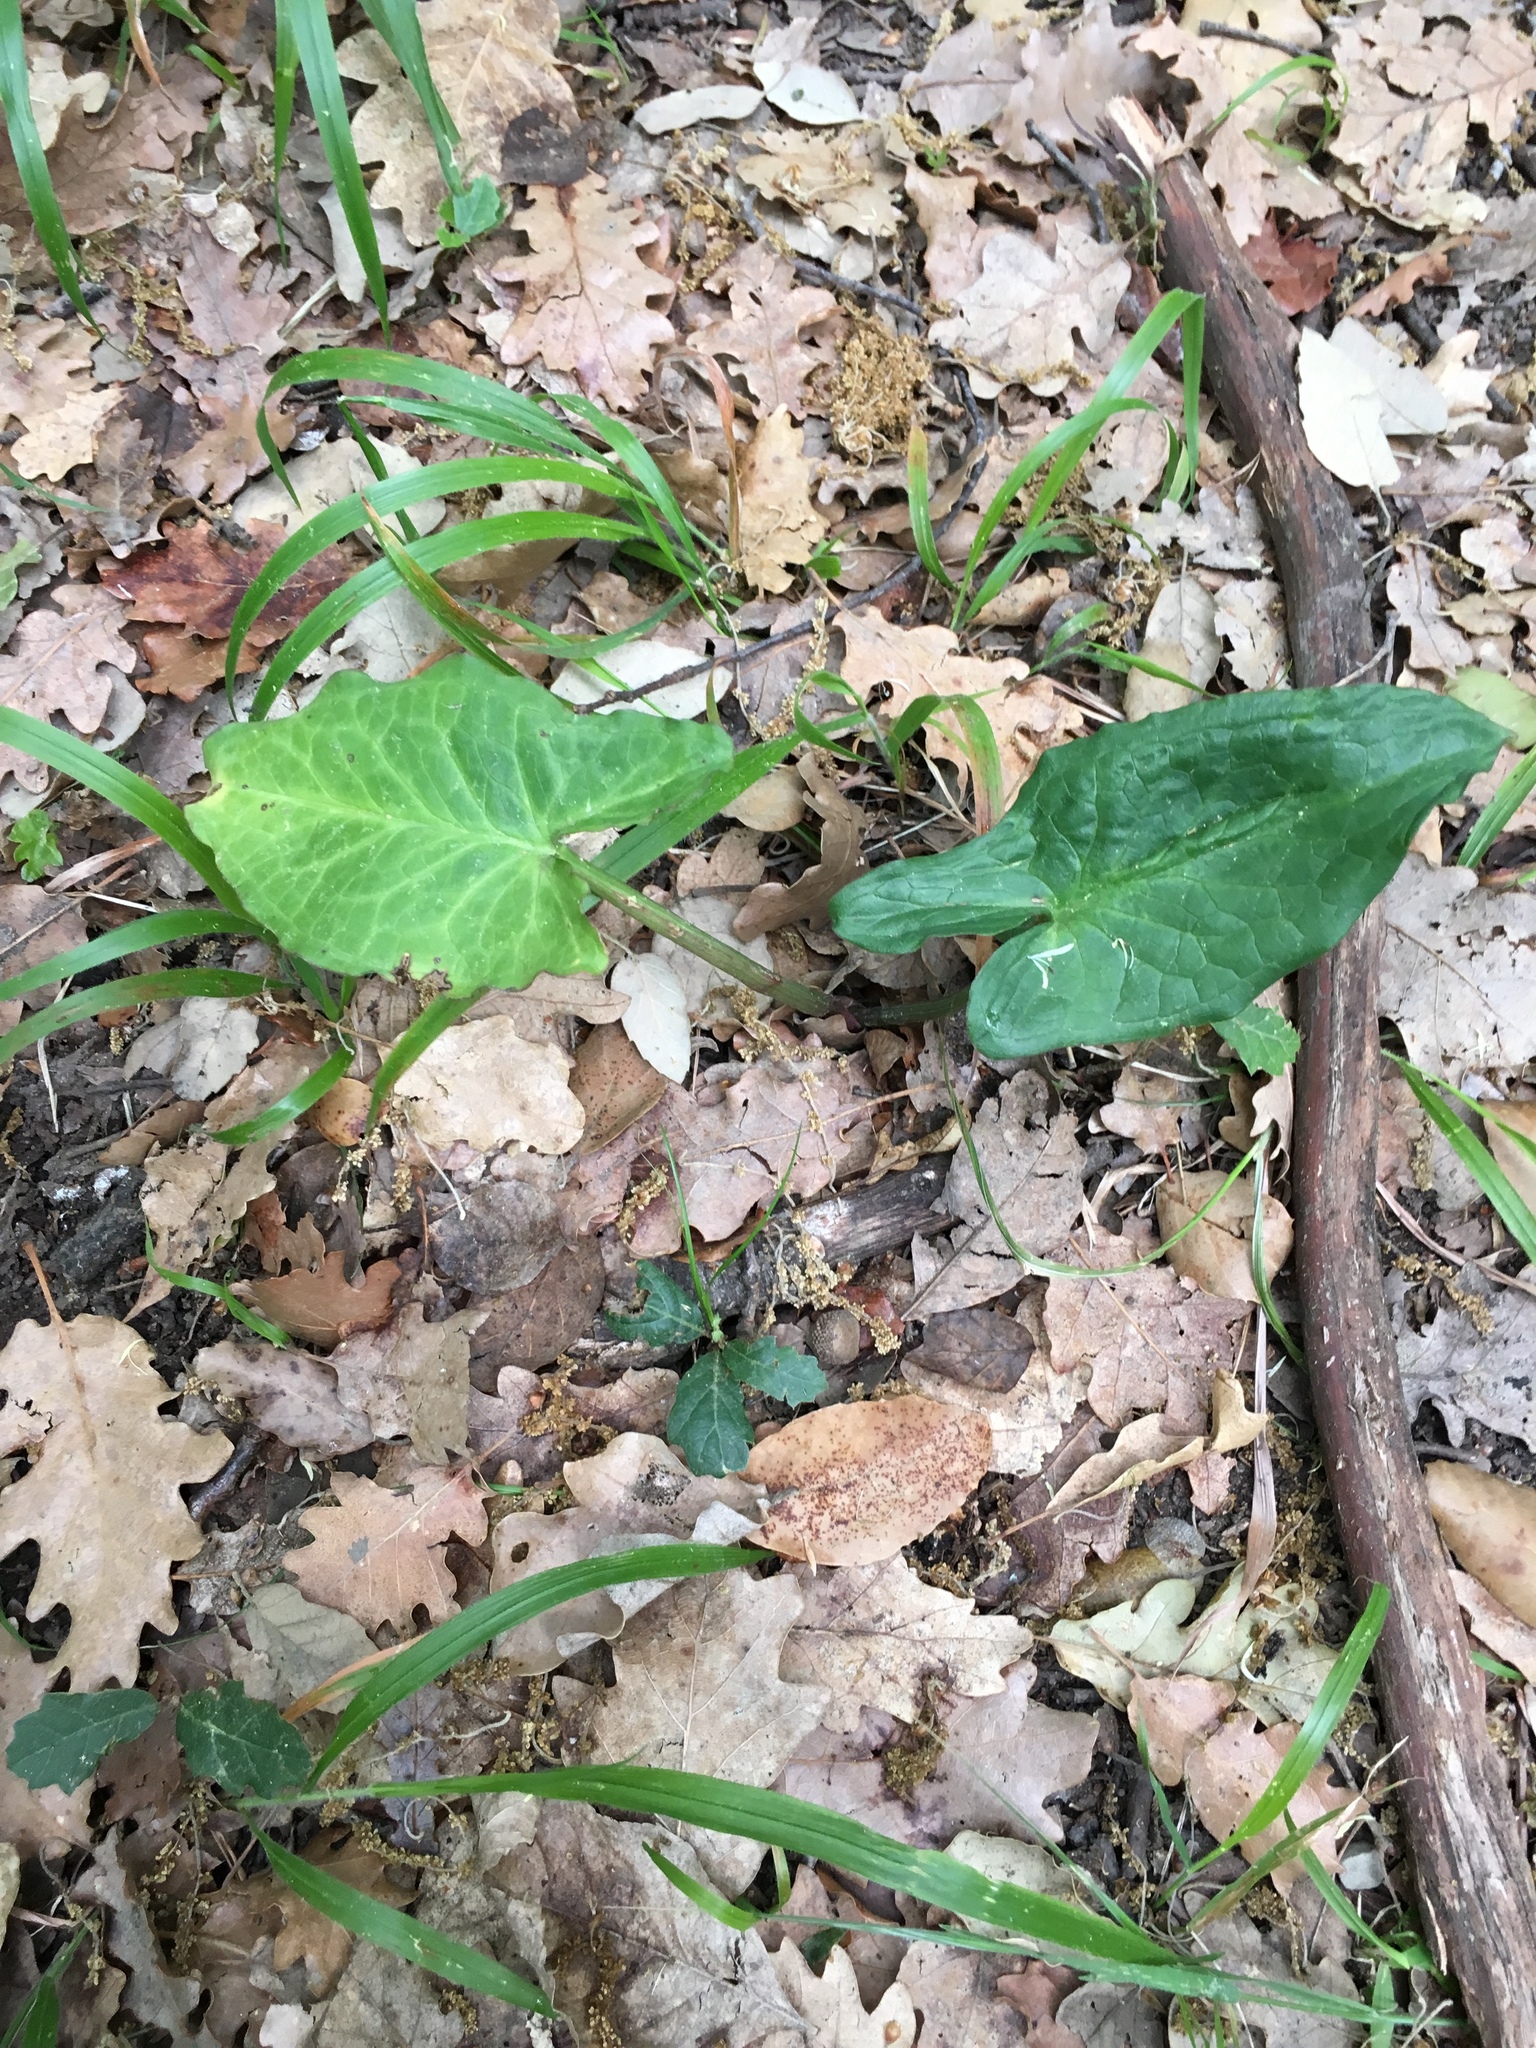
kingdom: Plantae
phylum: Tracheophyta
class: Liliopsida
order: Alismatales
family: Araceae
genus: Arum
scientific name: Arum italicum
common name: Italian lords-and-ladies
